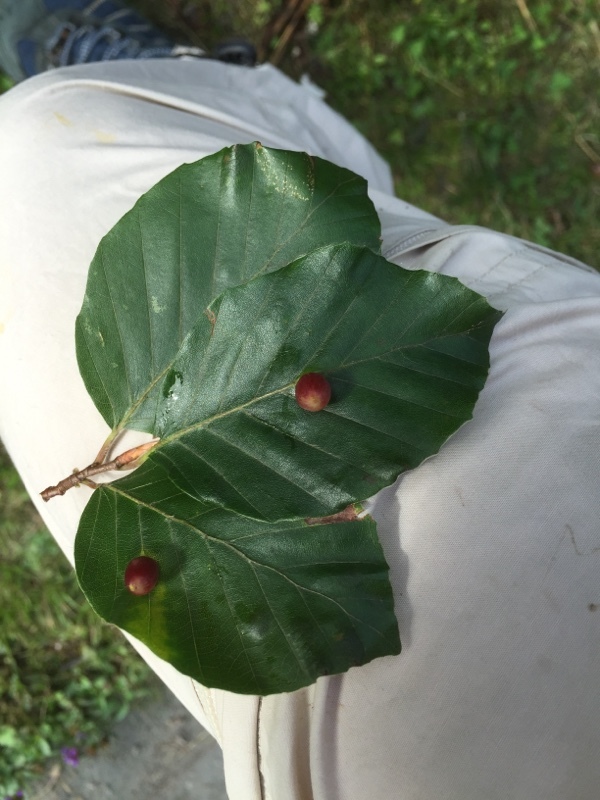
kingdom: Animalia
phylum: Arthropoda
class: Insecta
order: Diptera
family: Cecidomyiidae
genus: Mikiola
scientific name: Mikiola fagi
